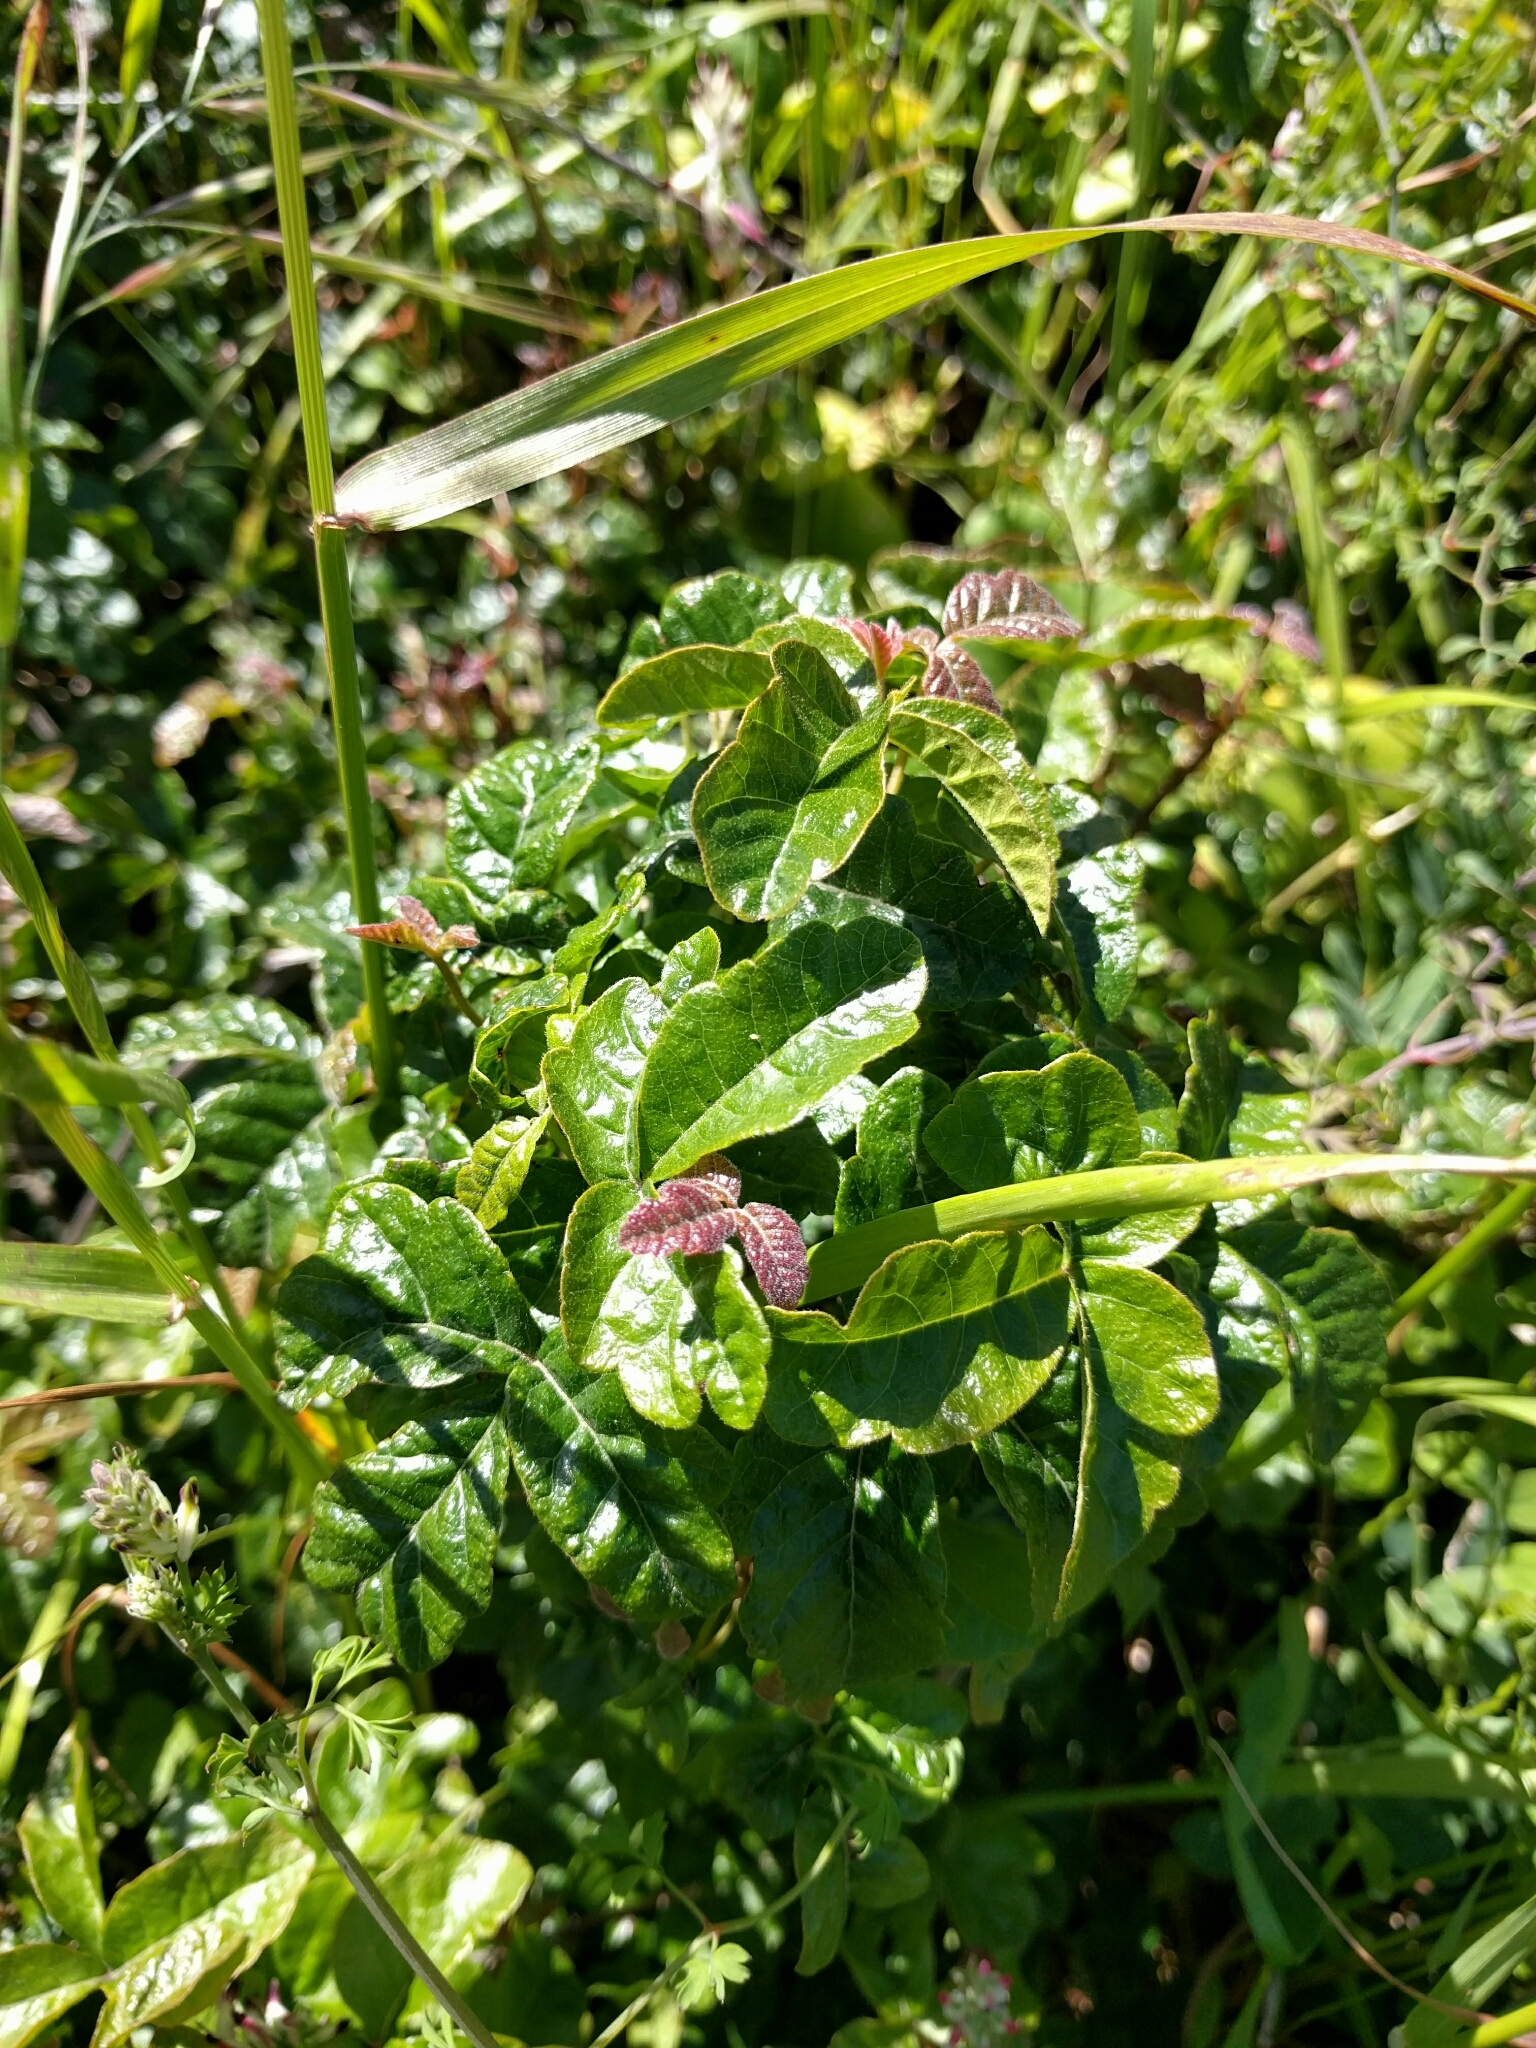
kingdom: Plantae
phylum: Tracheophyta
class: Magnoliopsida
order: Sapindales
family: Anacardiaceae
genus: Toxicodendron
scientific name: Toxicodendron diversilobum
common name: Pacific poison-oak
